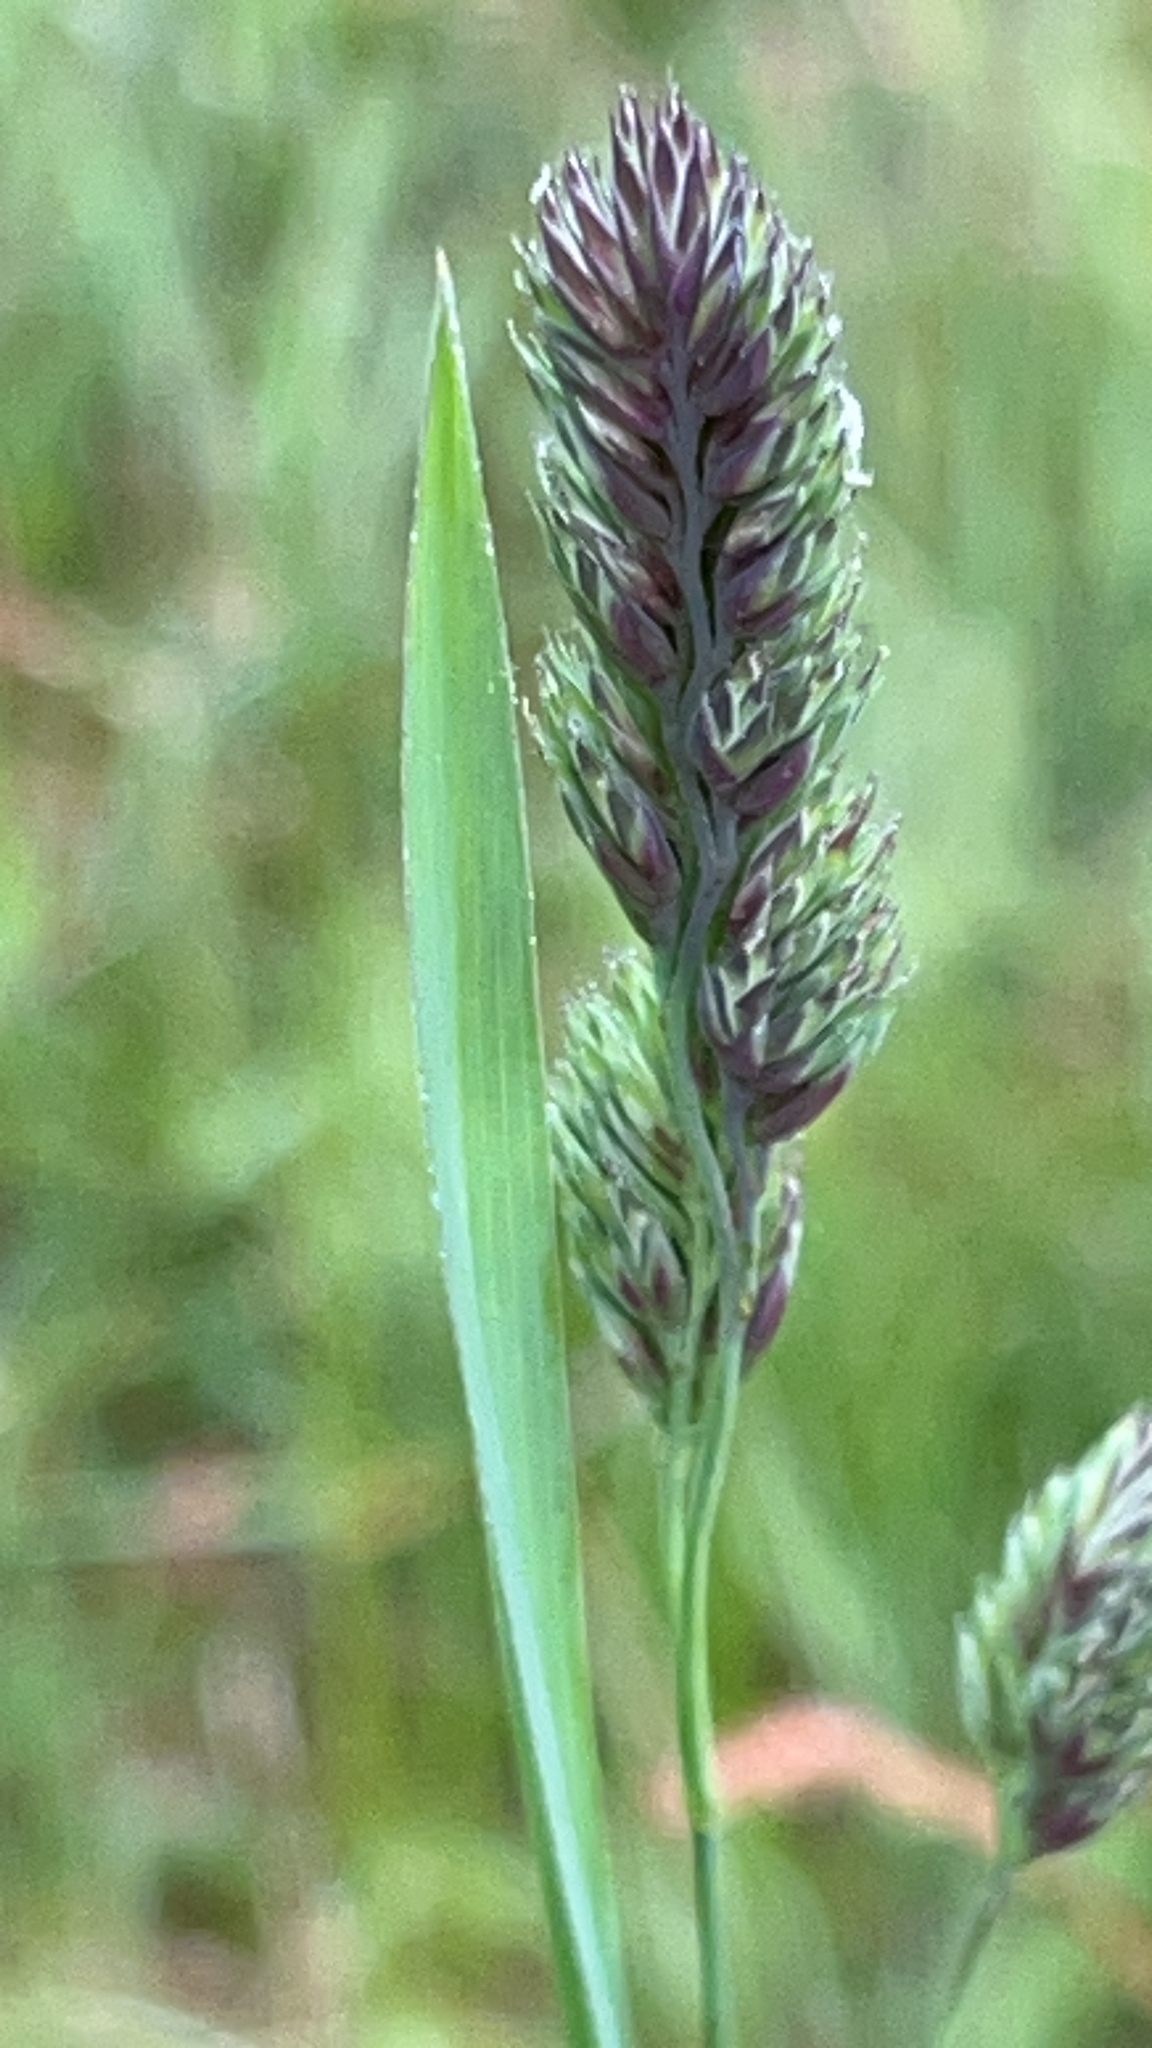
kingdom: Plantae
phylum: Tracheophyta
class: Liliopsida
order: Poales
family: Poaceae
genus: Dactylis
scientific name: Dactylis glomerata
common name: Orchardgrass
